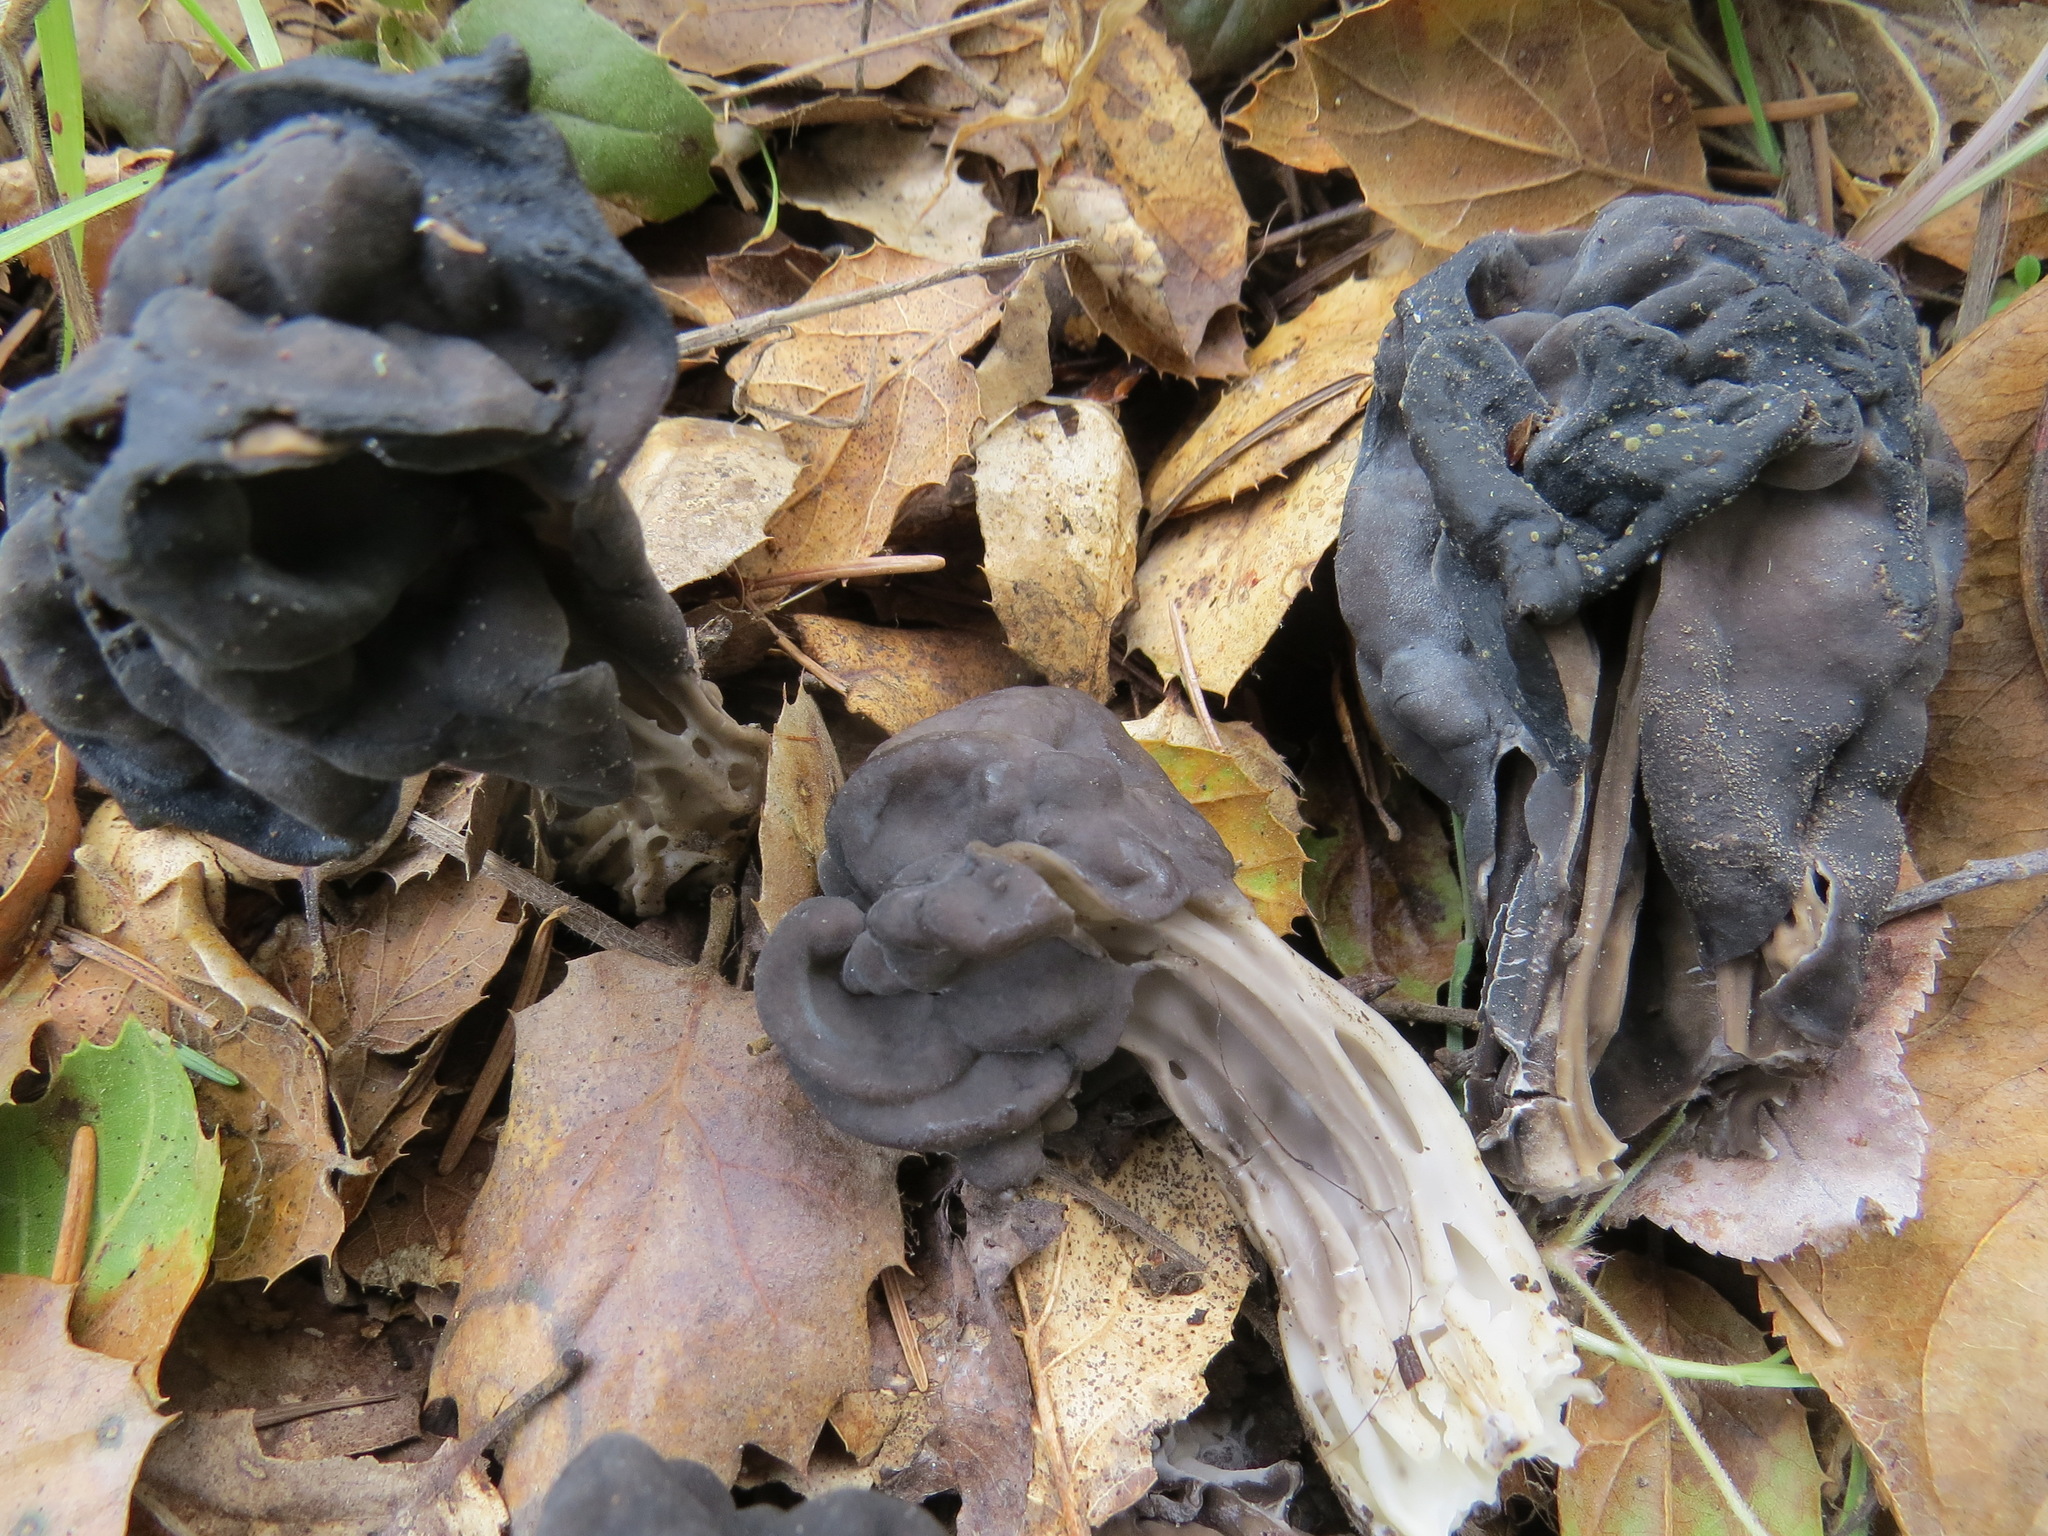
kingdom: Fungi
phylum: Ascomycota
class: Pezizomycetes
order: Pezizales
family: Helvellaceae
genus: Helvella
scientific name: Helvella dryophila
